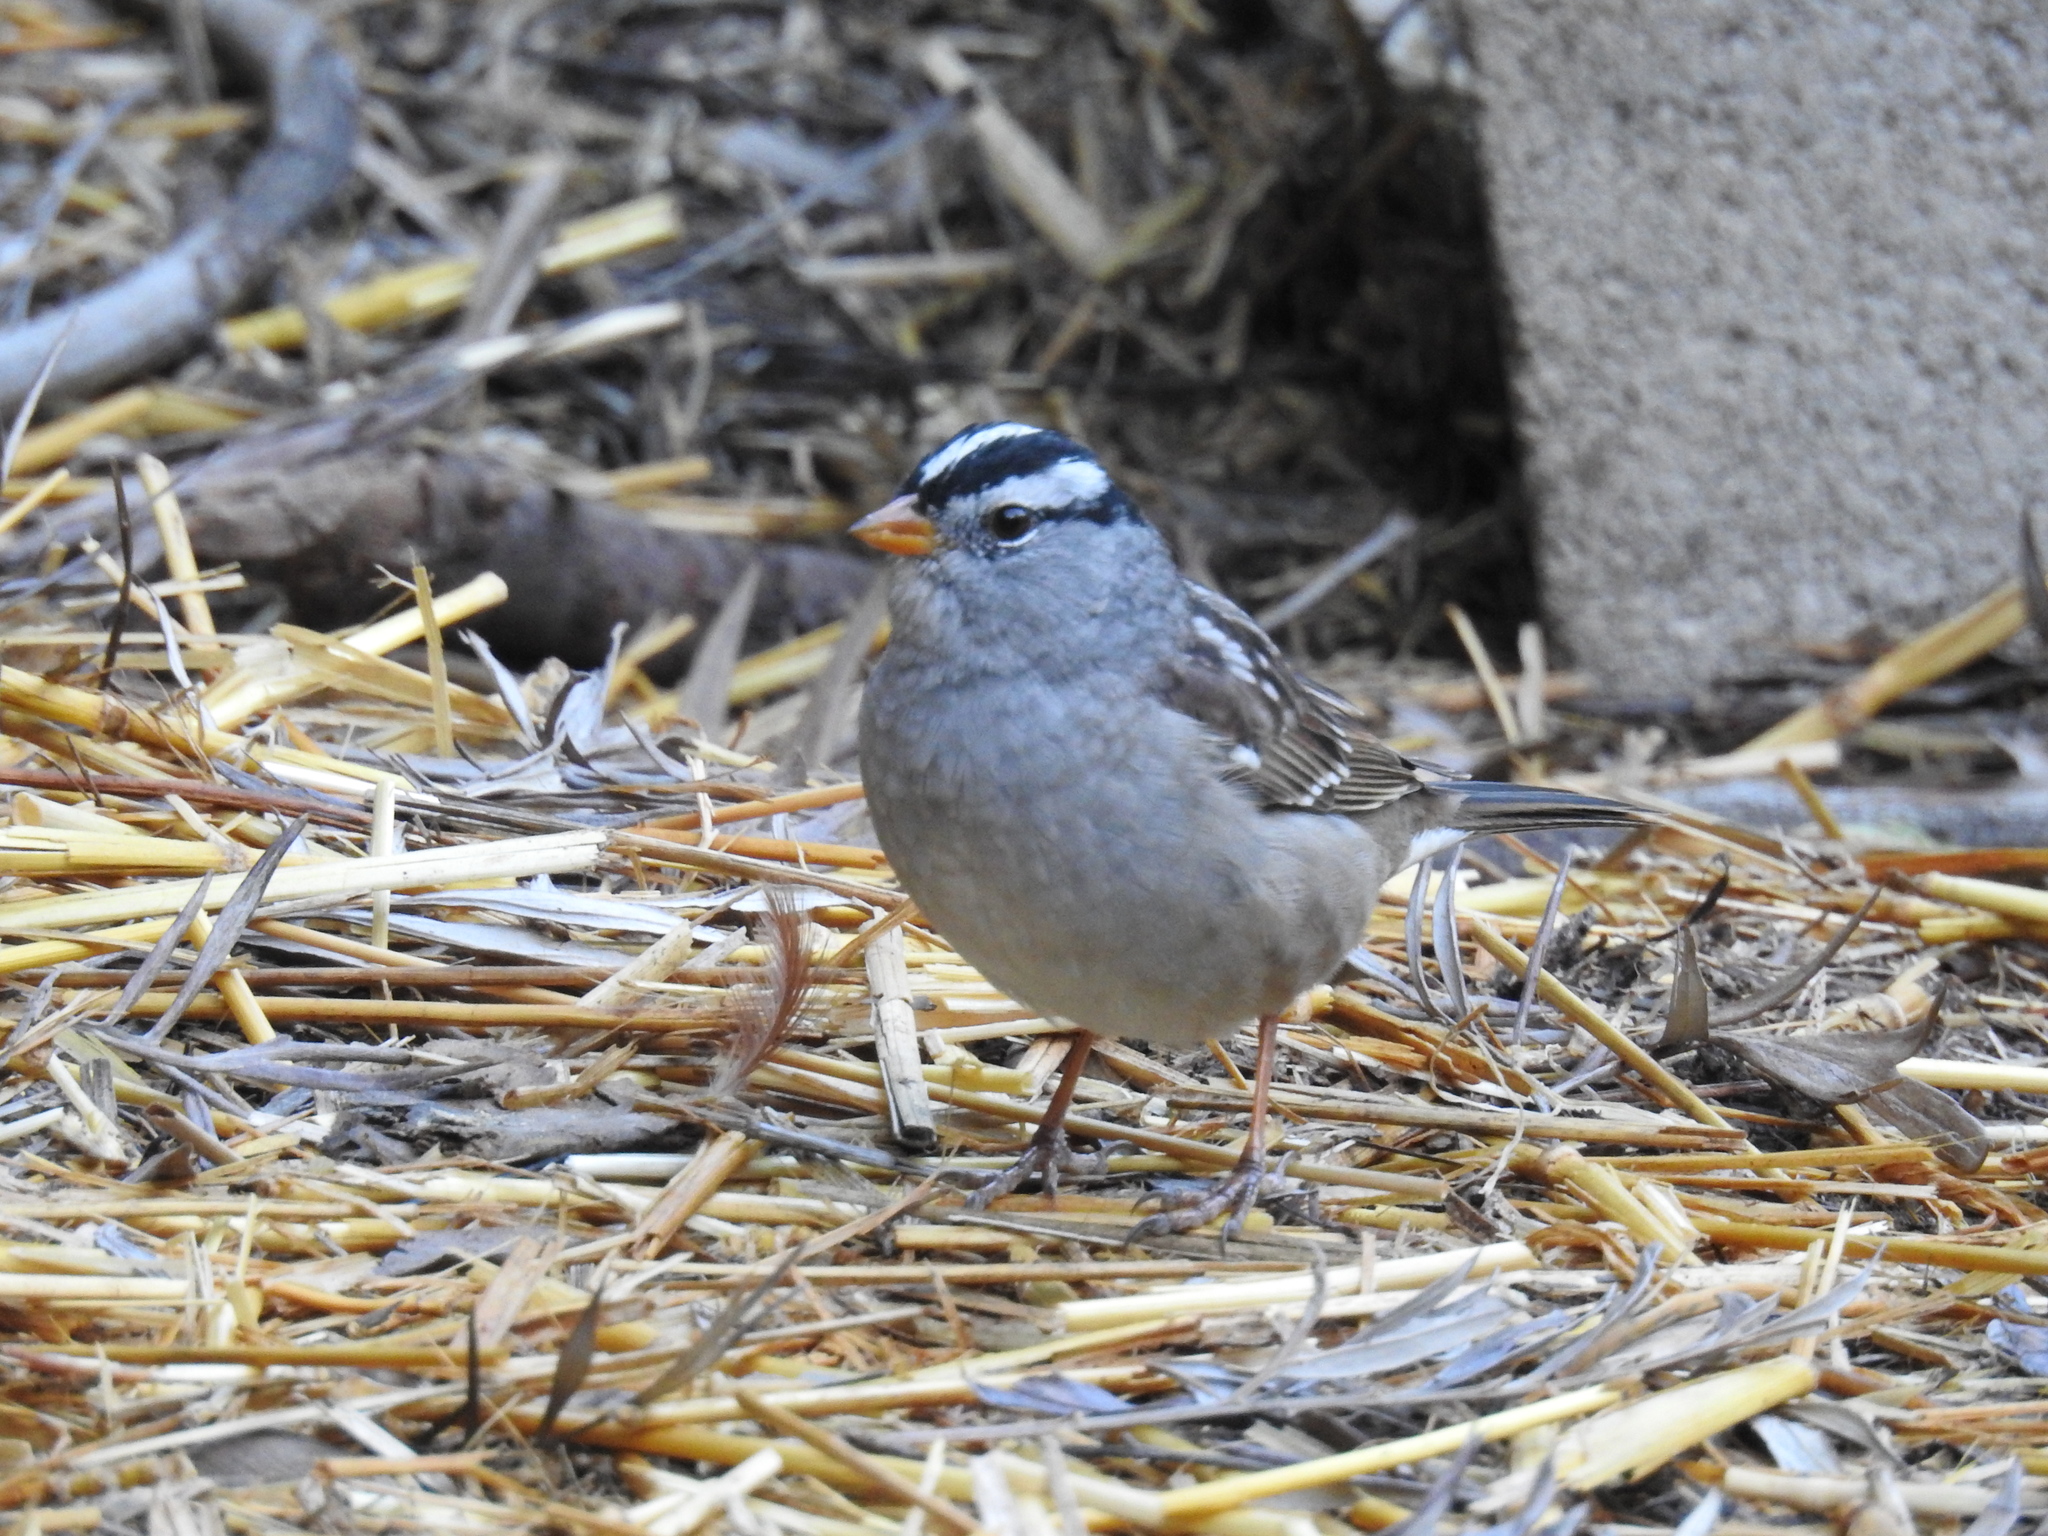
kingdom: Animalia
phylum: Chordata
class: Aves
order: Passeriformes
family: Passerellidae
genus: Zonotrichia
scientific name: Zonotrichia leucophrys
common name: White-crowned sparrow
